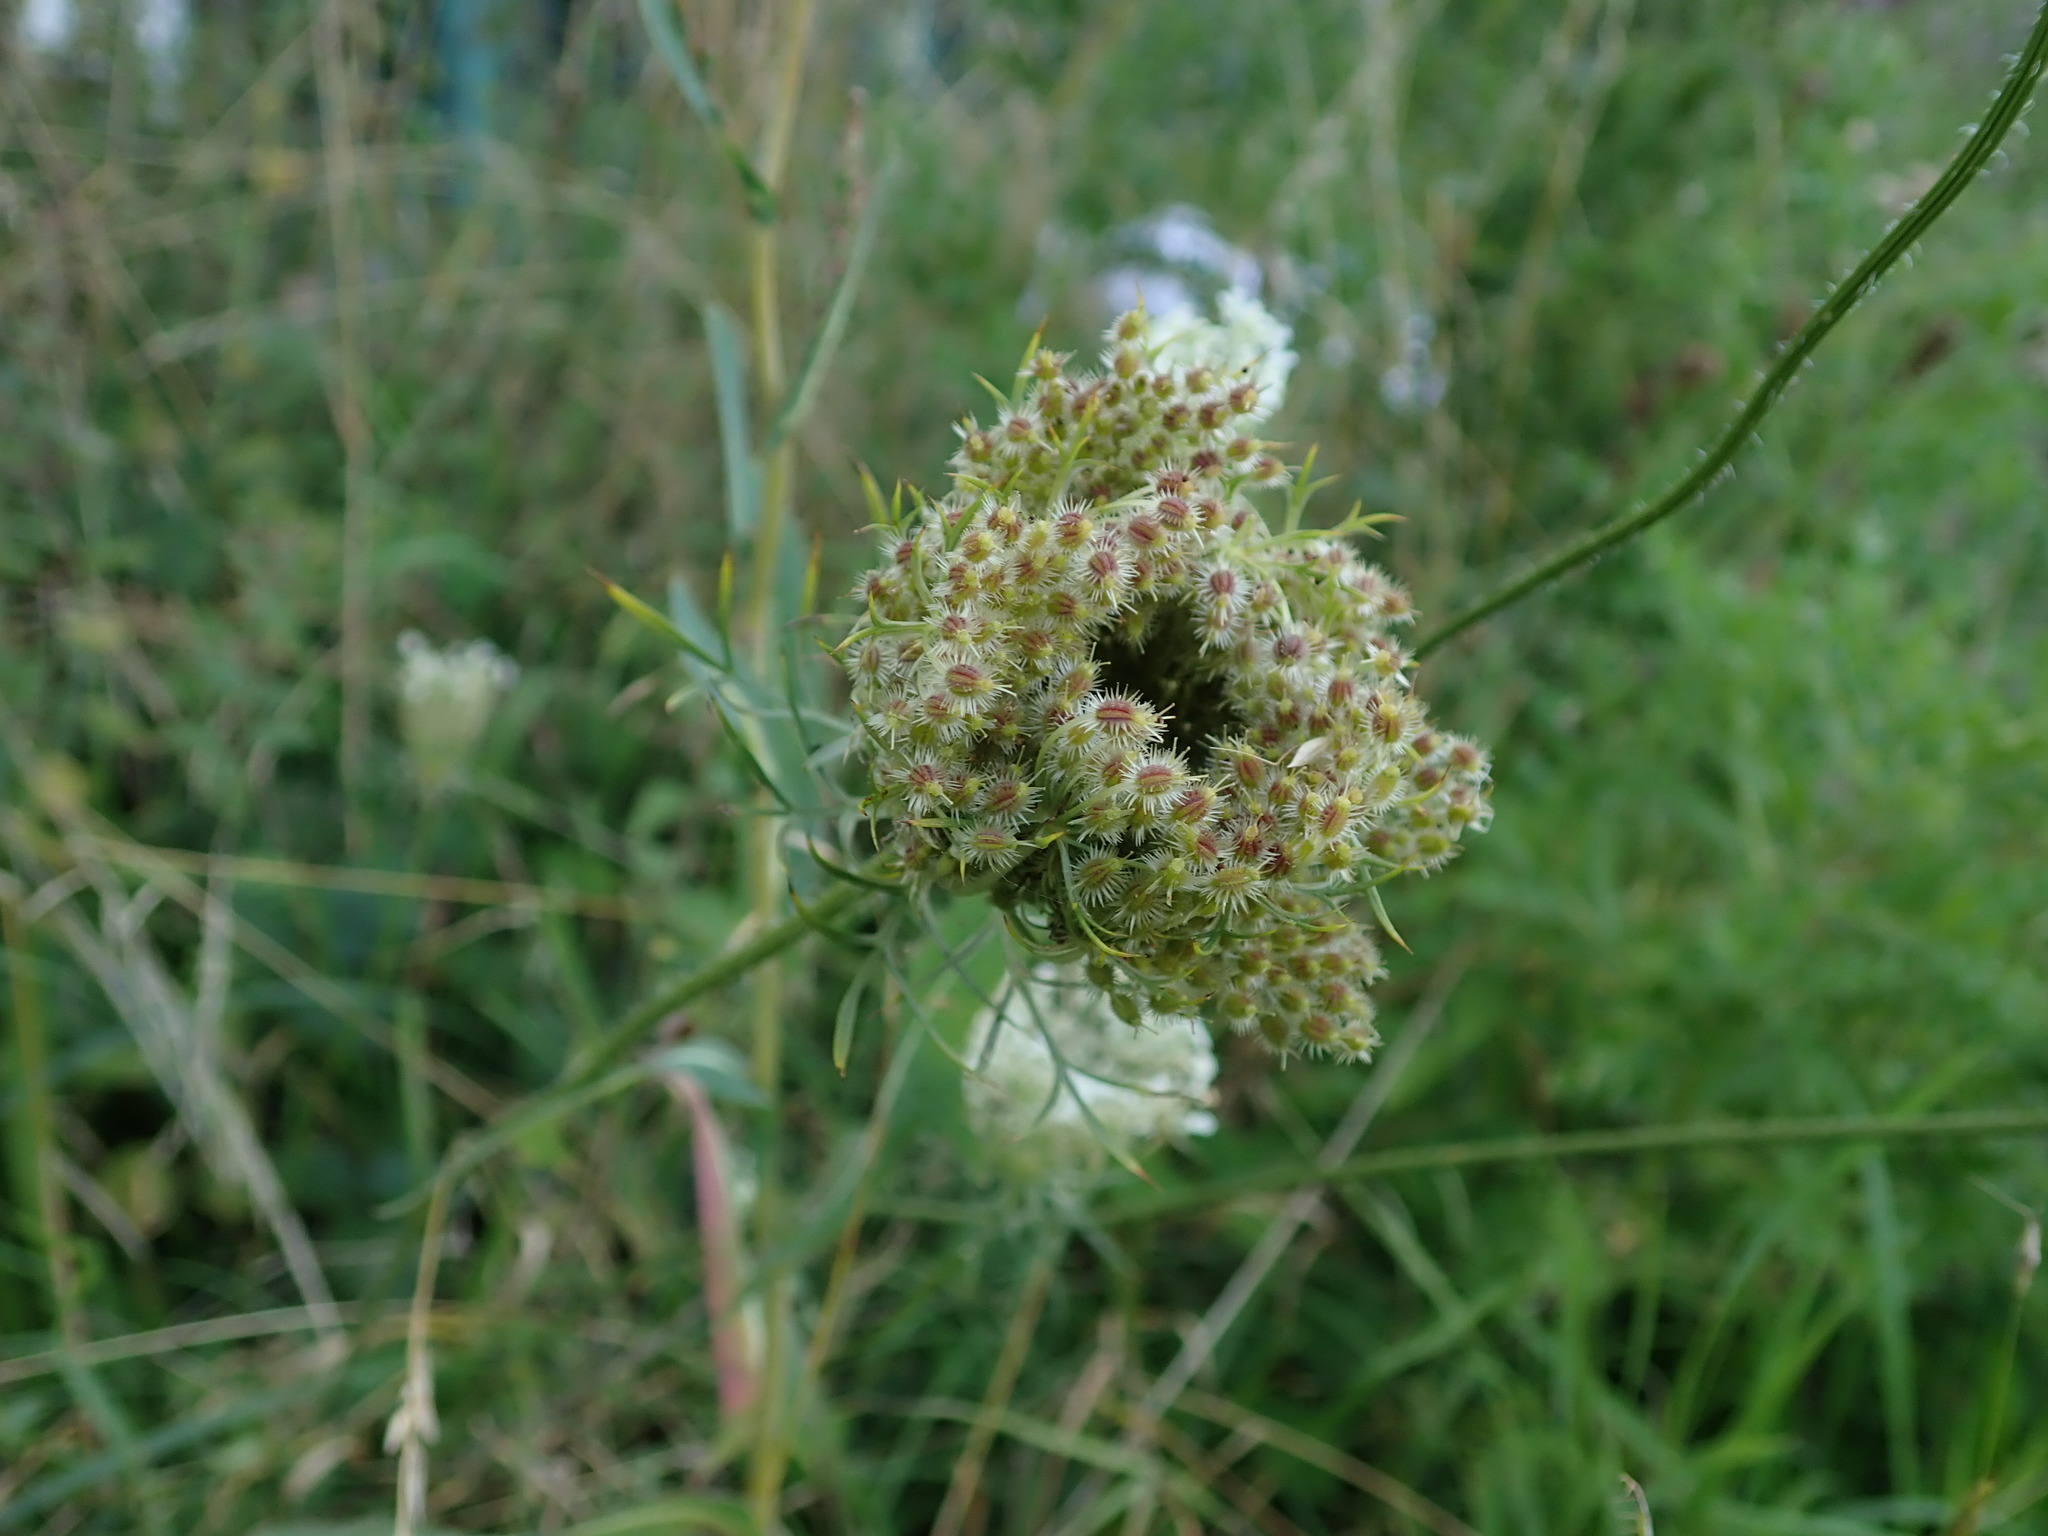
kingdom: Plantae
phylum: Tracheophyta
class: Magnoliopsida
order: Apiales
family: Apiaceae
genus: Daucus
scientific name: Daucus carota
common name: Wild carrot
